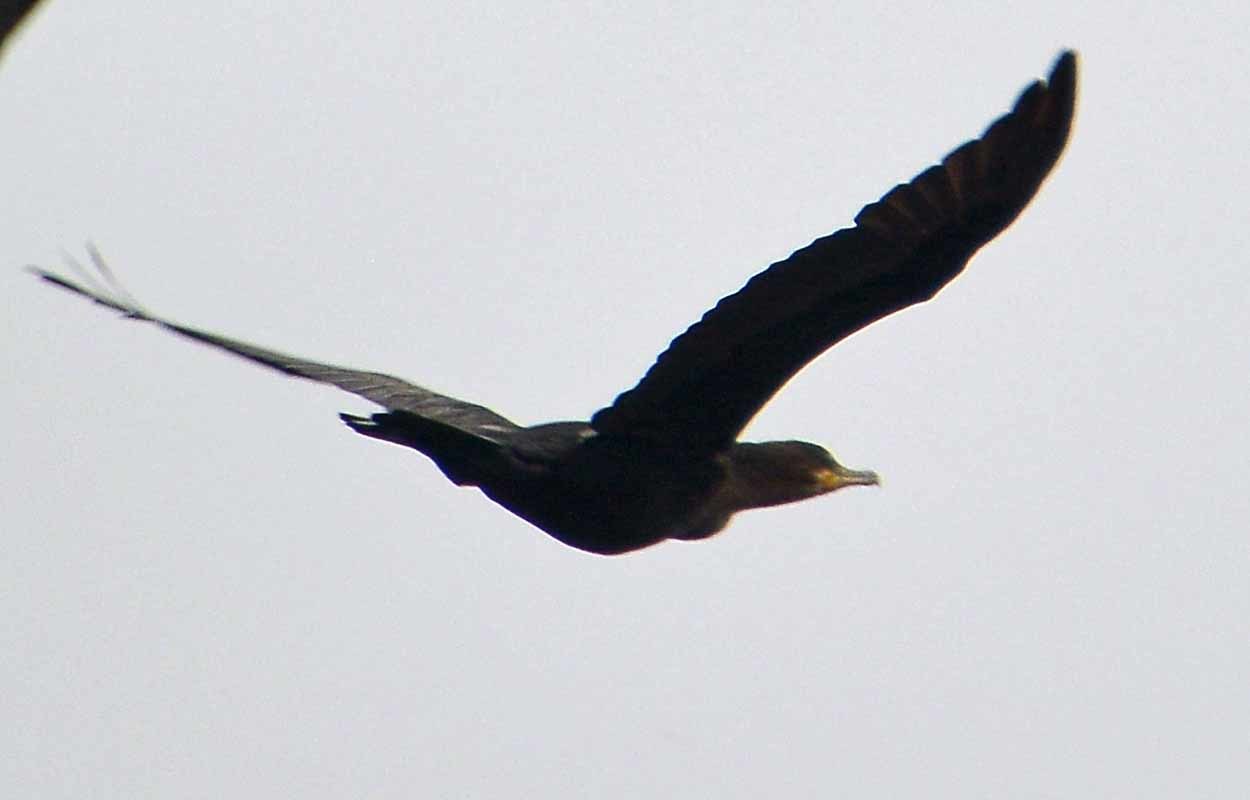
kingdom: Animalia
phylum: Chordata
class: Aves
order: Suliformes
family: Phalacrocoracidae
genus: Phalacrocorax
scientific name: Phalacrocorax brasilianus
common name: Neotropic cormorant
